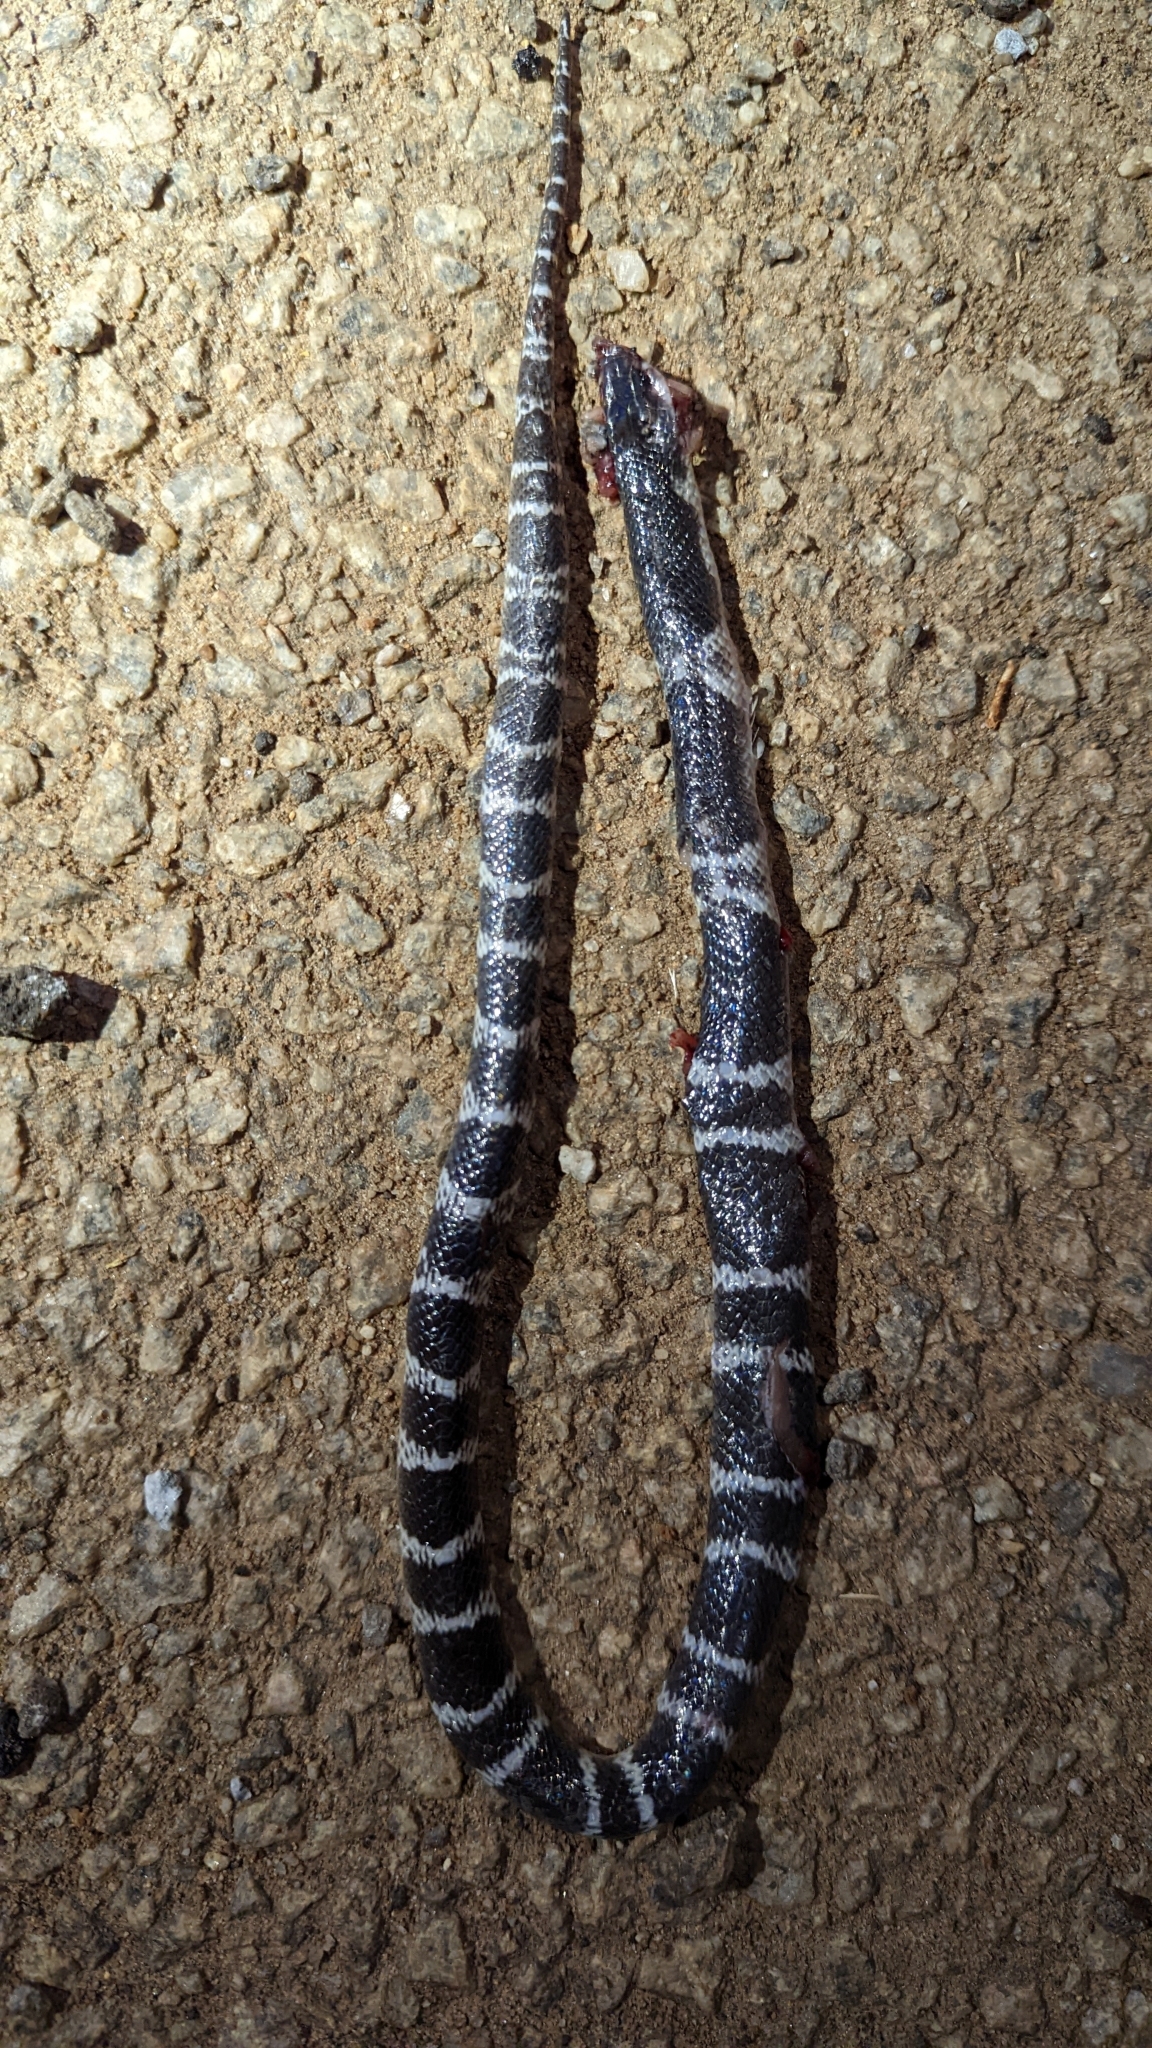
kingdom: Animalia
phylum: Chordata
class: Squamata
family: Elapidae
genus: Bungarus
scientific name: Bungarus caeruleus
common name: Common krait
